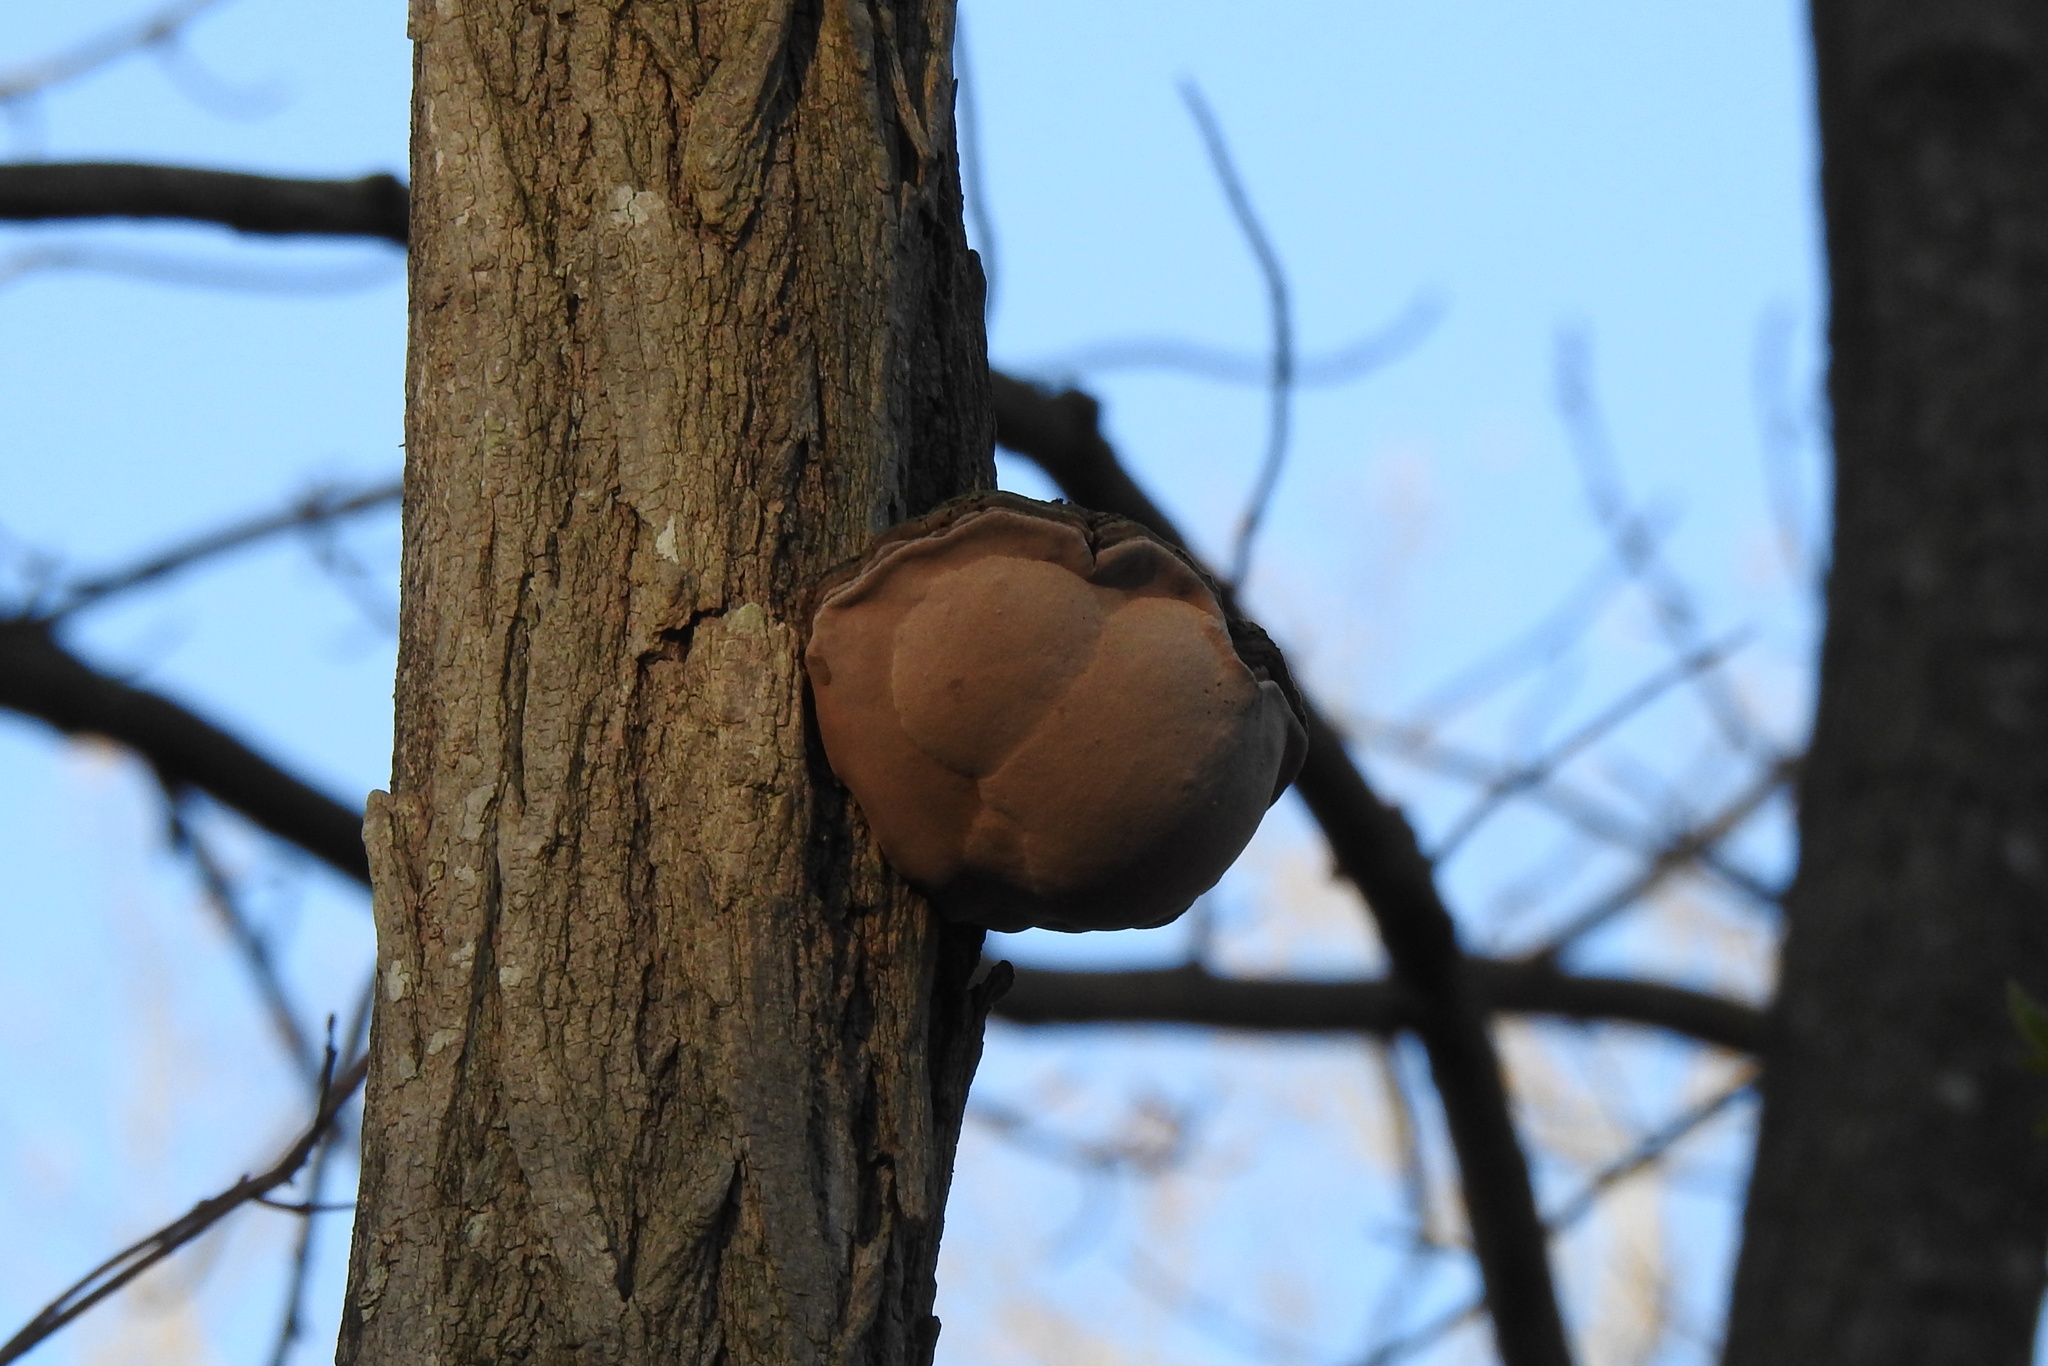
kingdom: Fungi
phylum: Basidiomycota
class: Agaricomycetes
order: Hymenochaetales
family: Hymenochaetaceae
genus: Phellinus
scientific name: Phellinus robiniae
